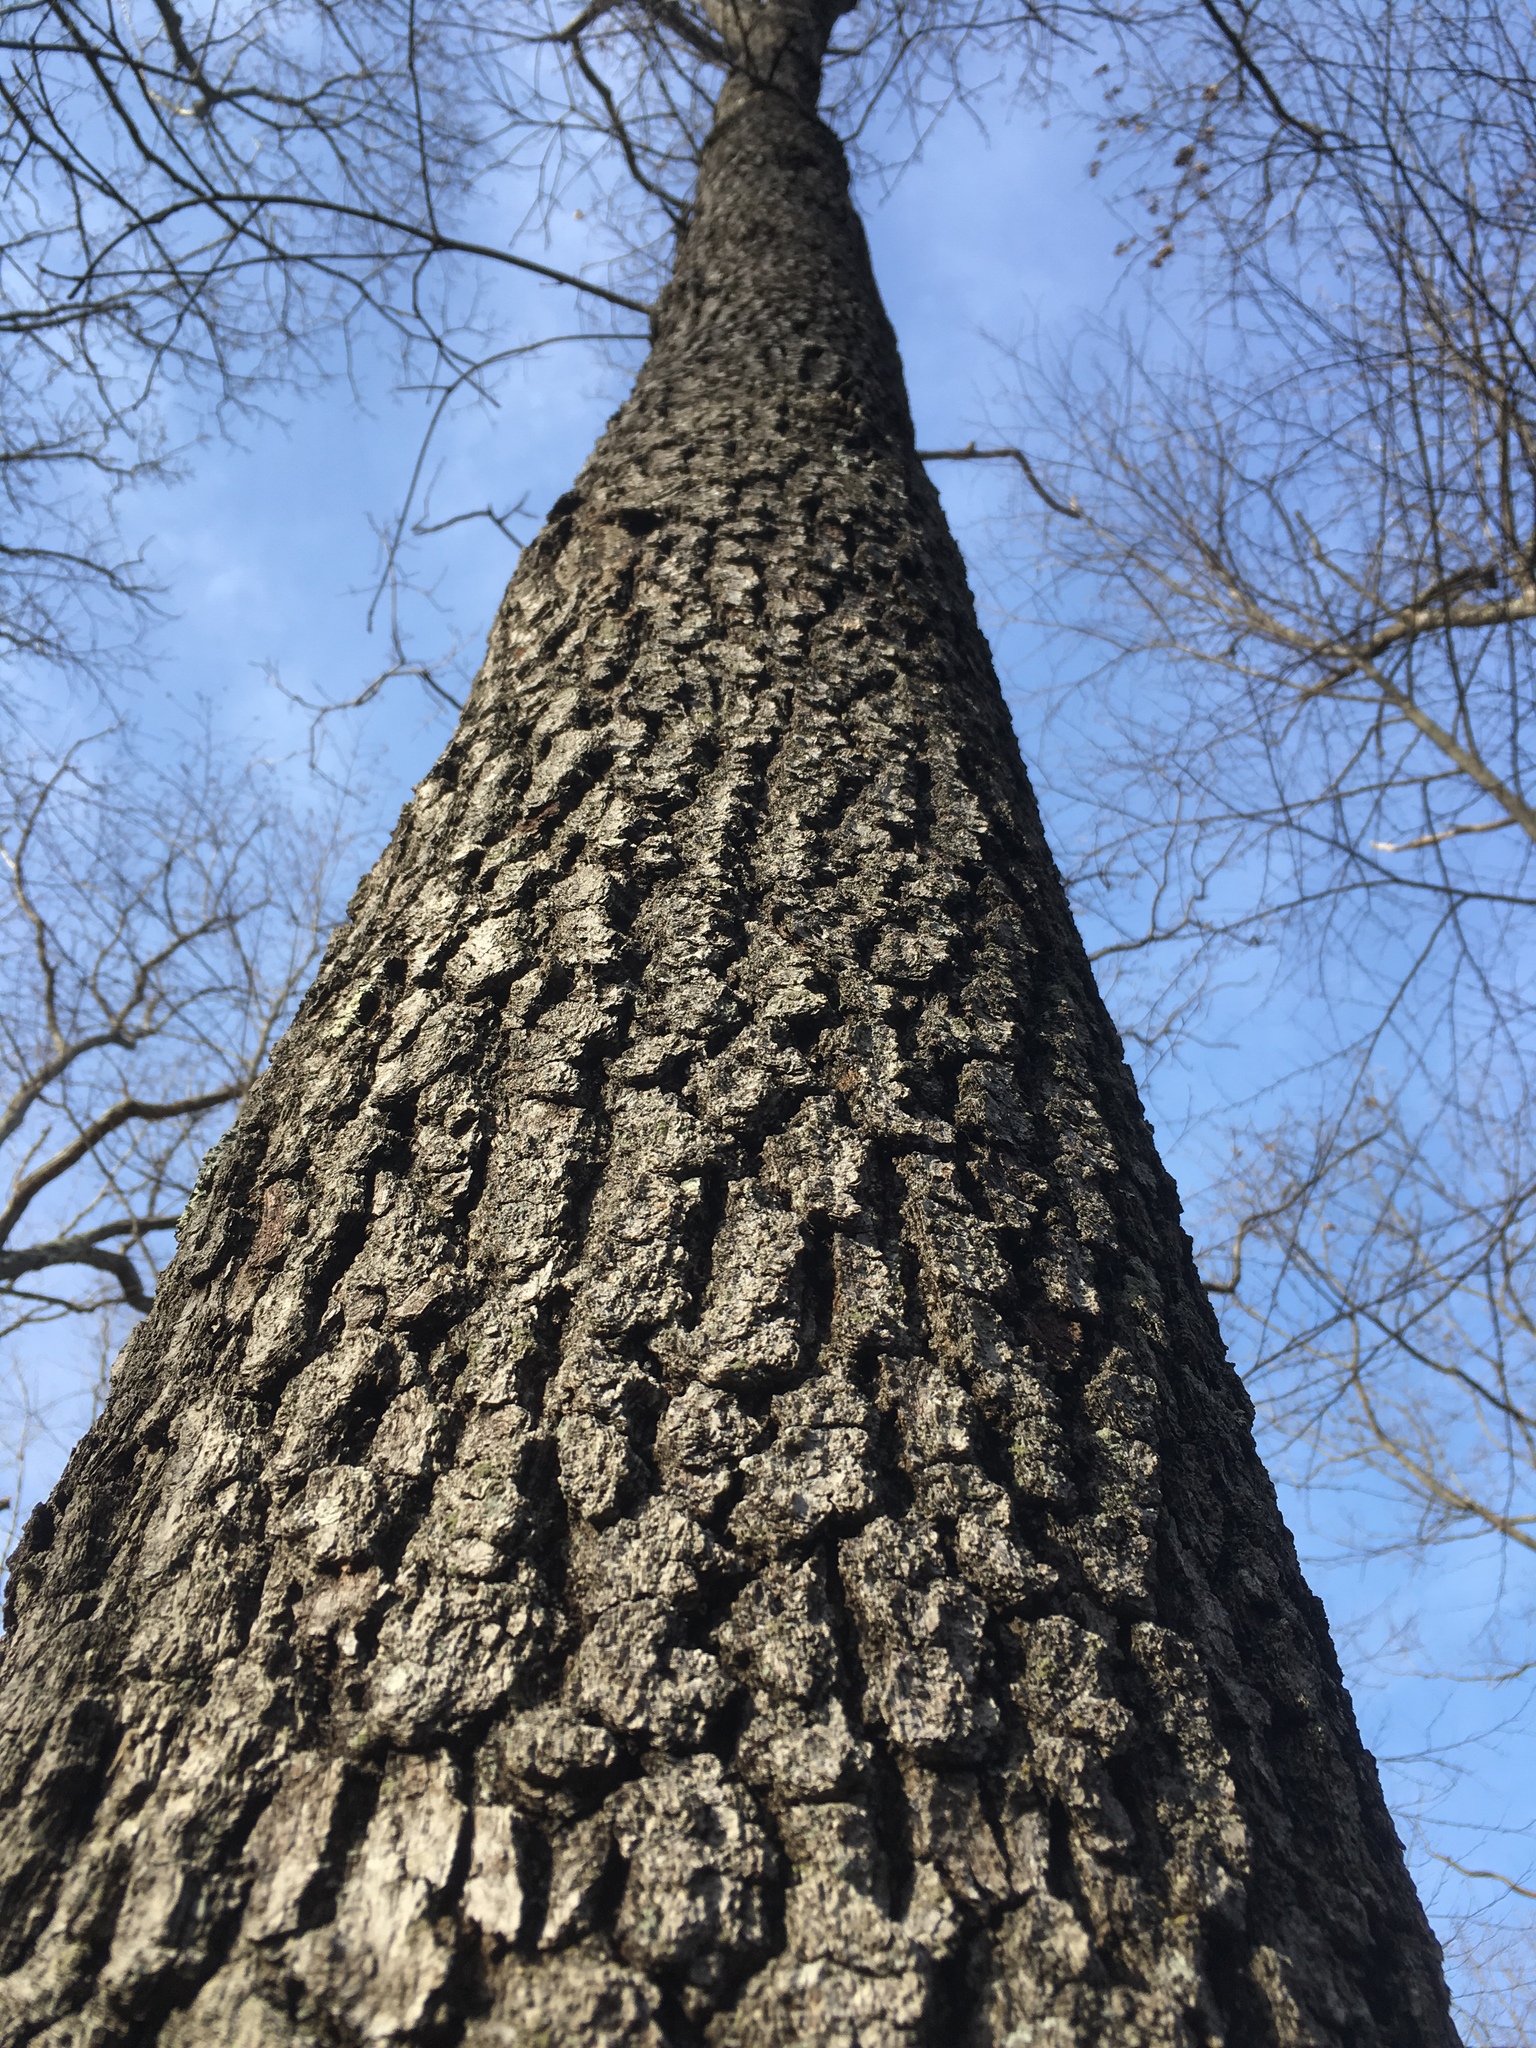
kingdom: Plantae
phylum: Tracheophyta
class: Magnoliopsida
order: Fagales
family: Fagaceae
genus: Quercus
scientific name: Quercus velutina
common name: Black oak
